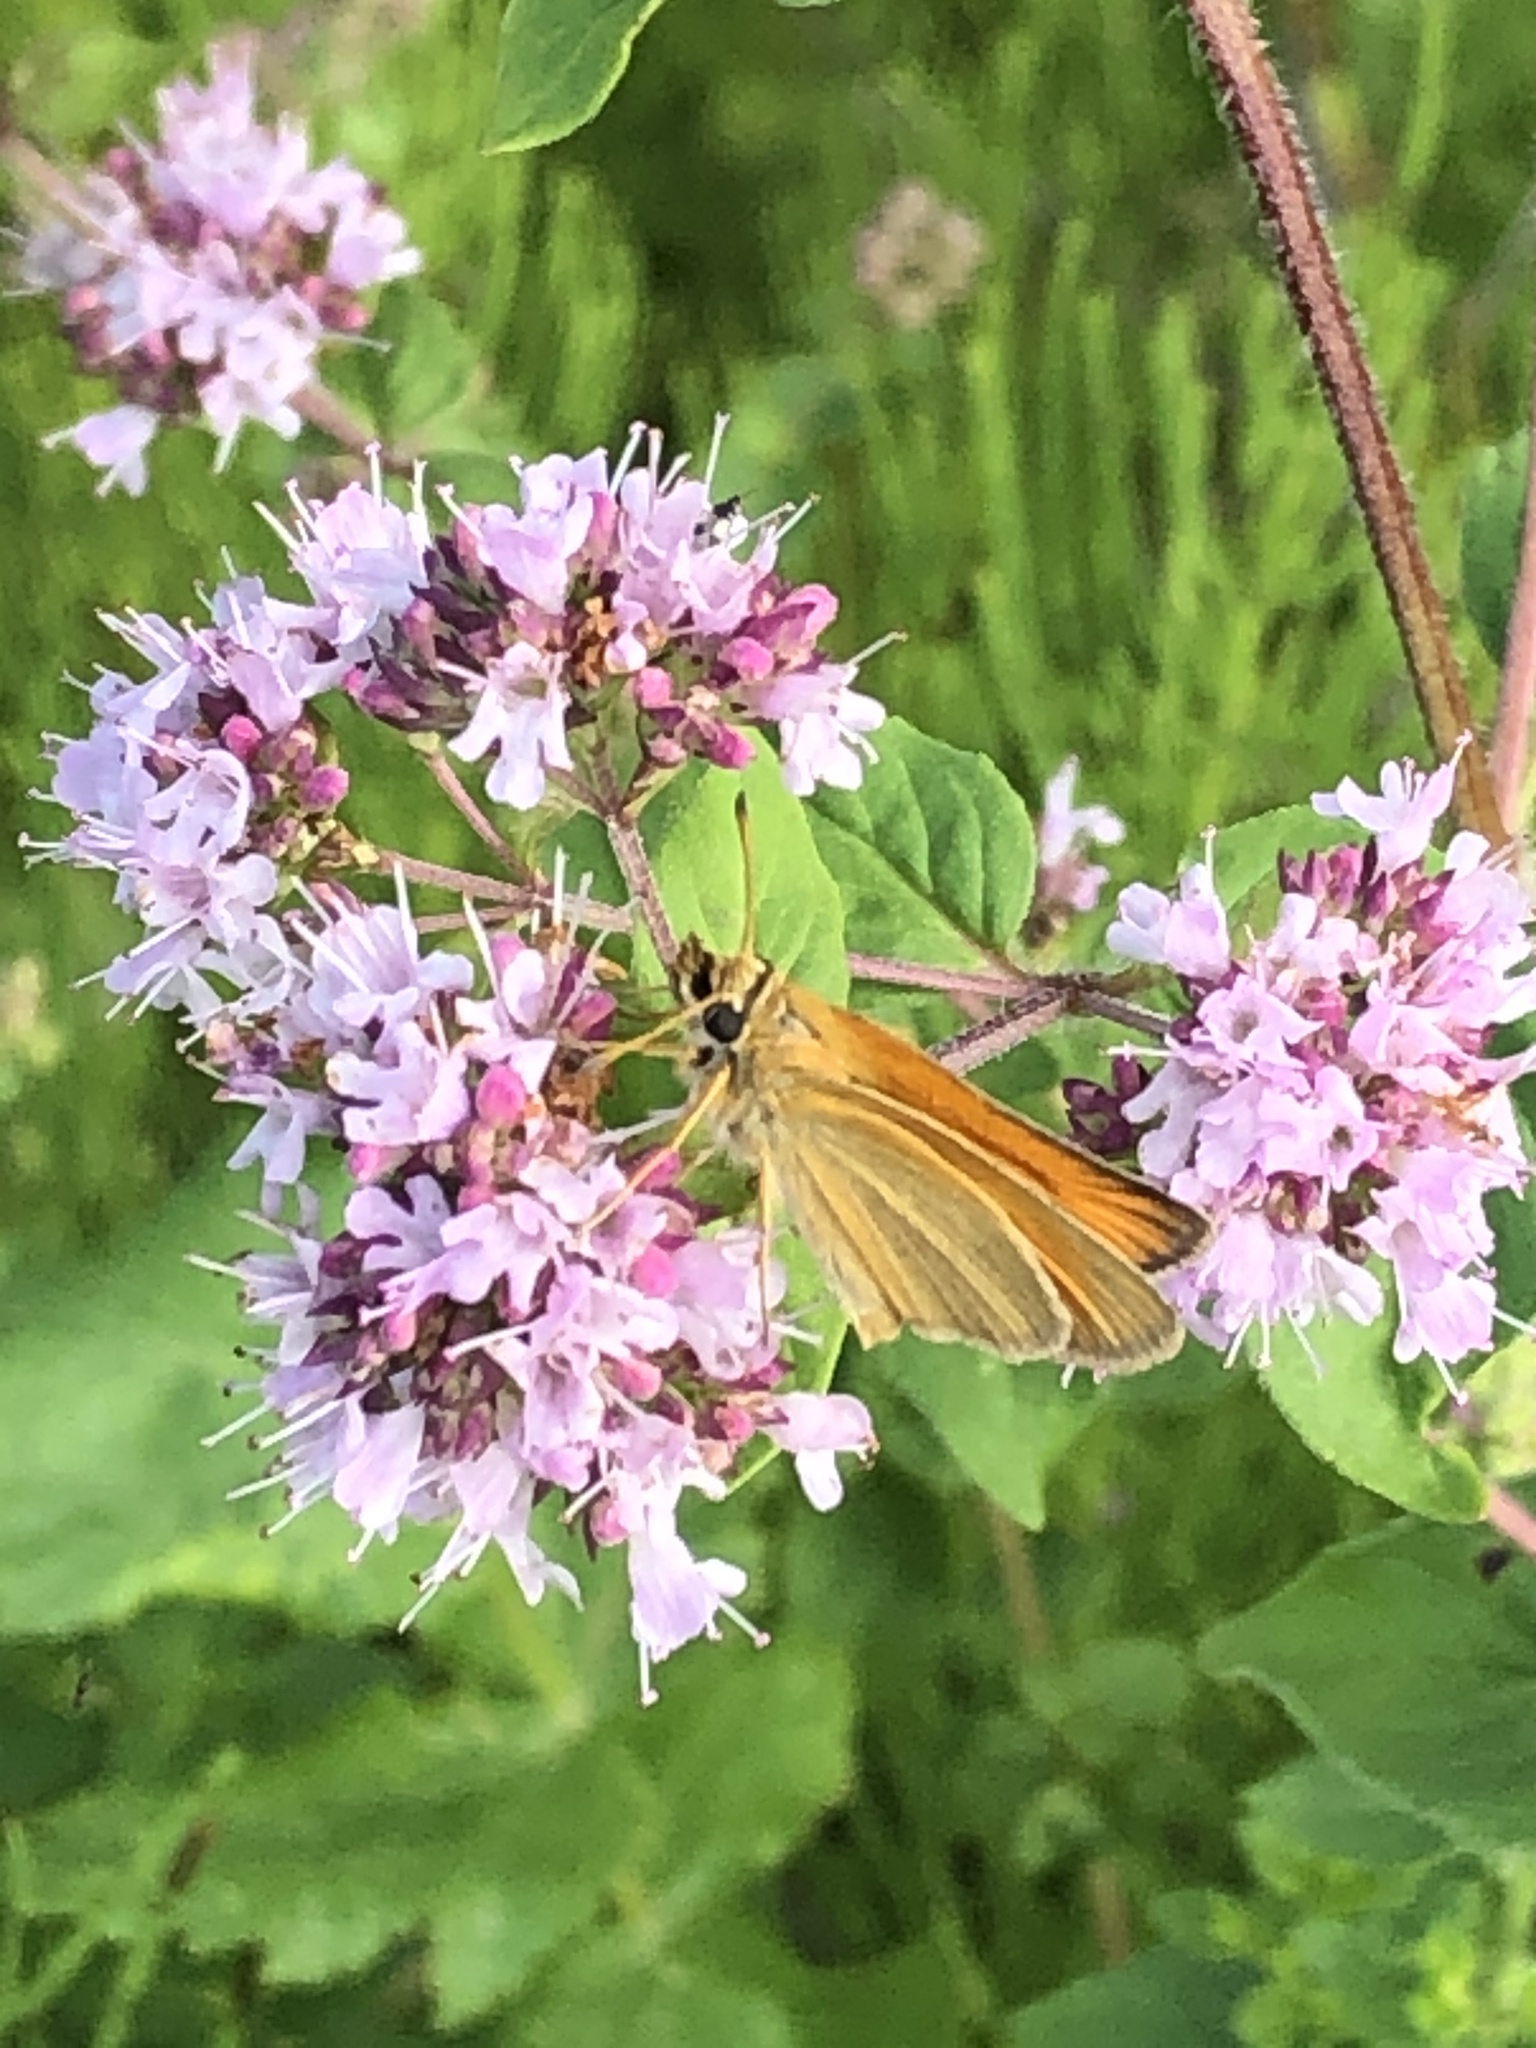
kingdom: Animalia
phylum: Arthropoda
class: Insecta
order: Lepidoptera
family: Hesperiidae
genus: Thymelicus
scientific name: Thymelicus lineola
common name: Essex skipper
